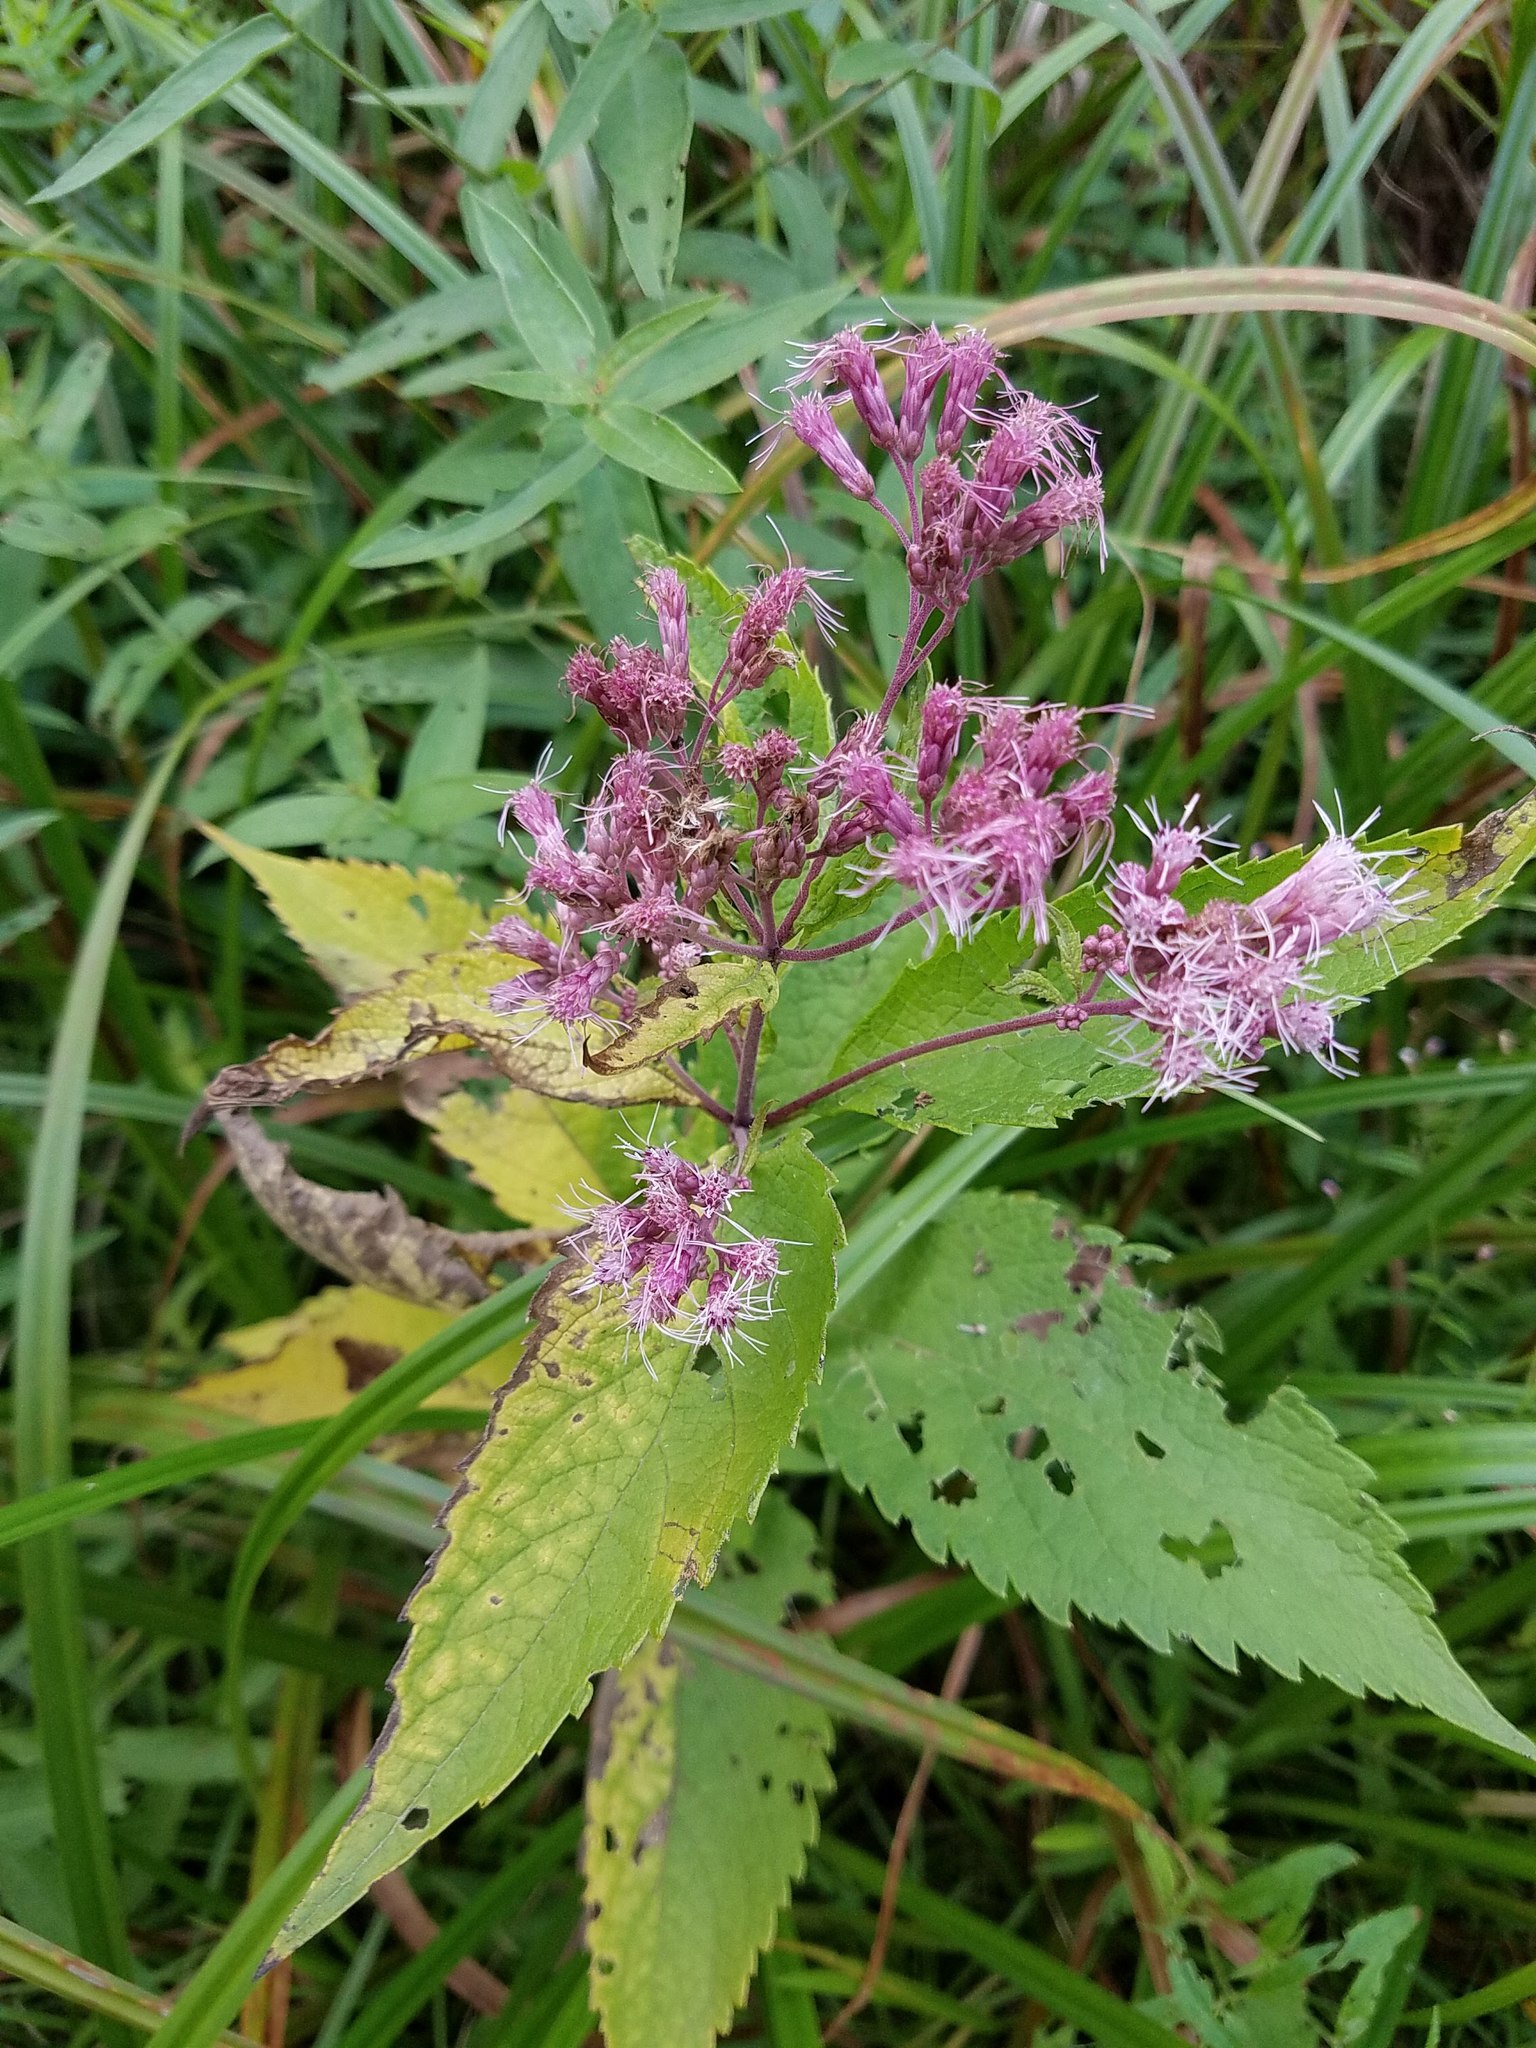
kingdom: Plantae
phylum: Tracheophyta
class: Magnoliopsida
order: Asterales
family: Asteraceae
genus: Eutrochium
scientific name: Eutrochium maculatum
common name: Spotted joe pye weed
